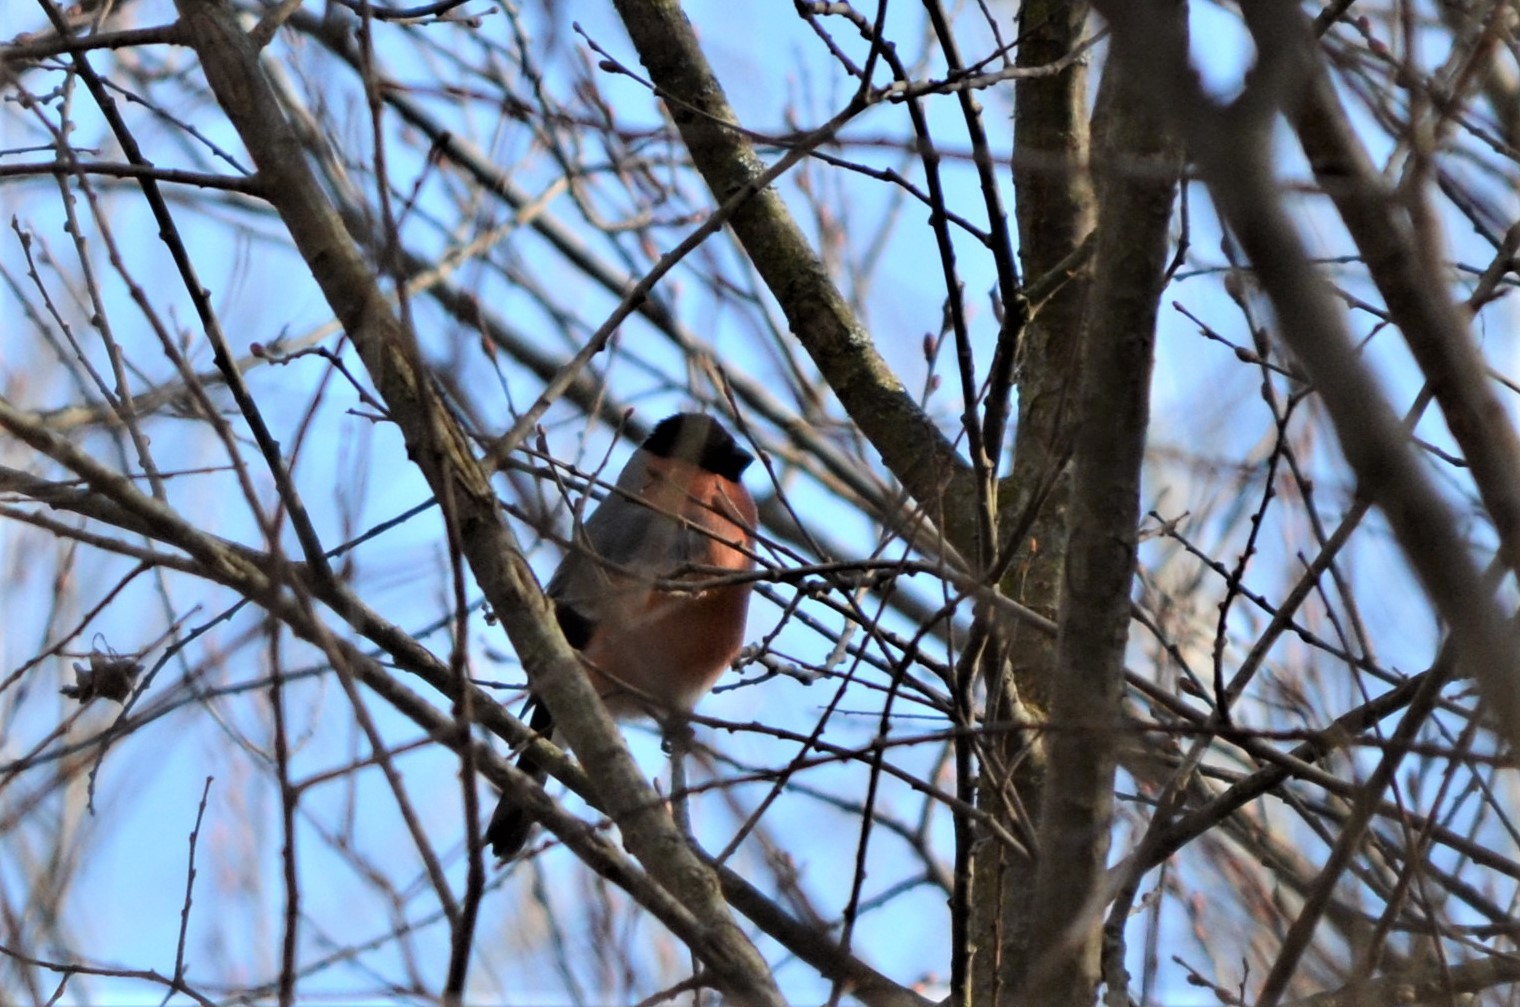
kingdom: Animalia
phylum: Chordata
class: Aves
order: Passeriformes
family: Fringillidae
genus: Pyrrhula
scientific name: Pyrrhula pyrrhula
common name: Eurasian bullfinch
